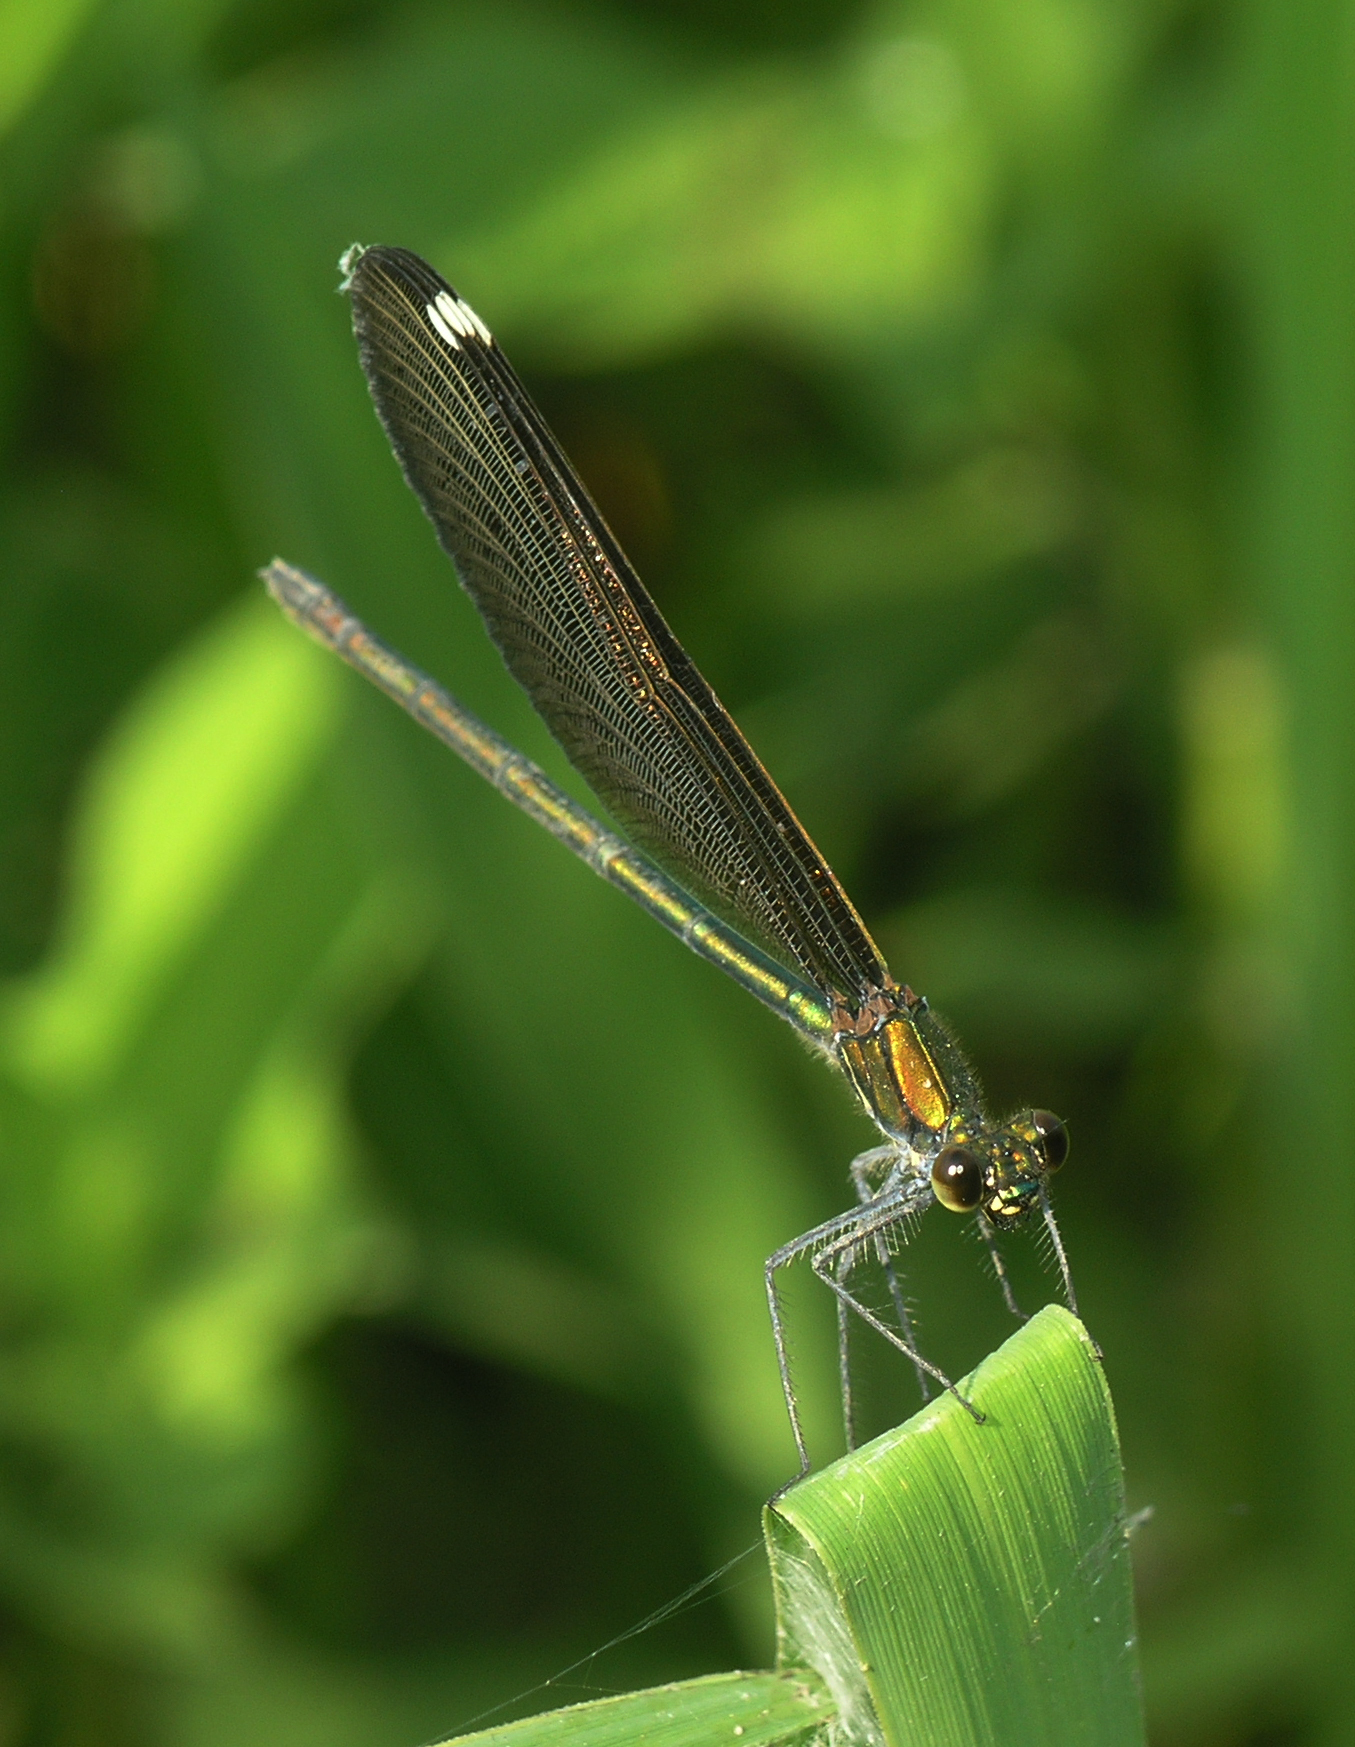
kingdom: Animalia
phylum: Arthropoda
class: Insecta
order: Odonata
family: Calopterygidae
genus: Calopteryx
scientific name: Calopteryx japonica
